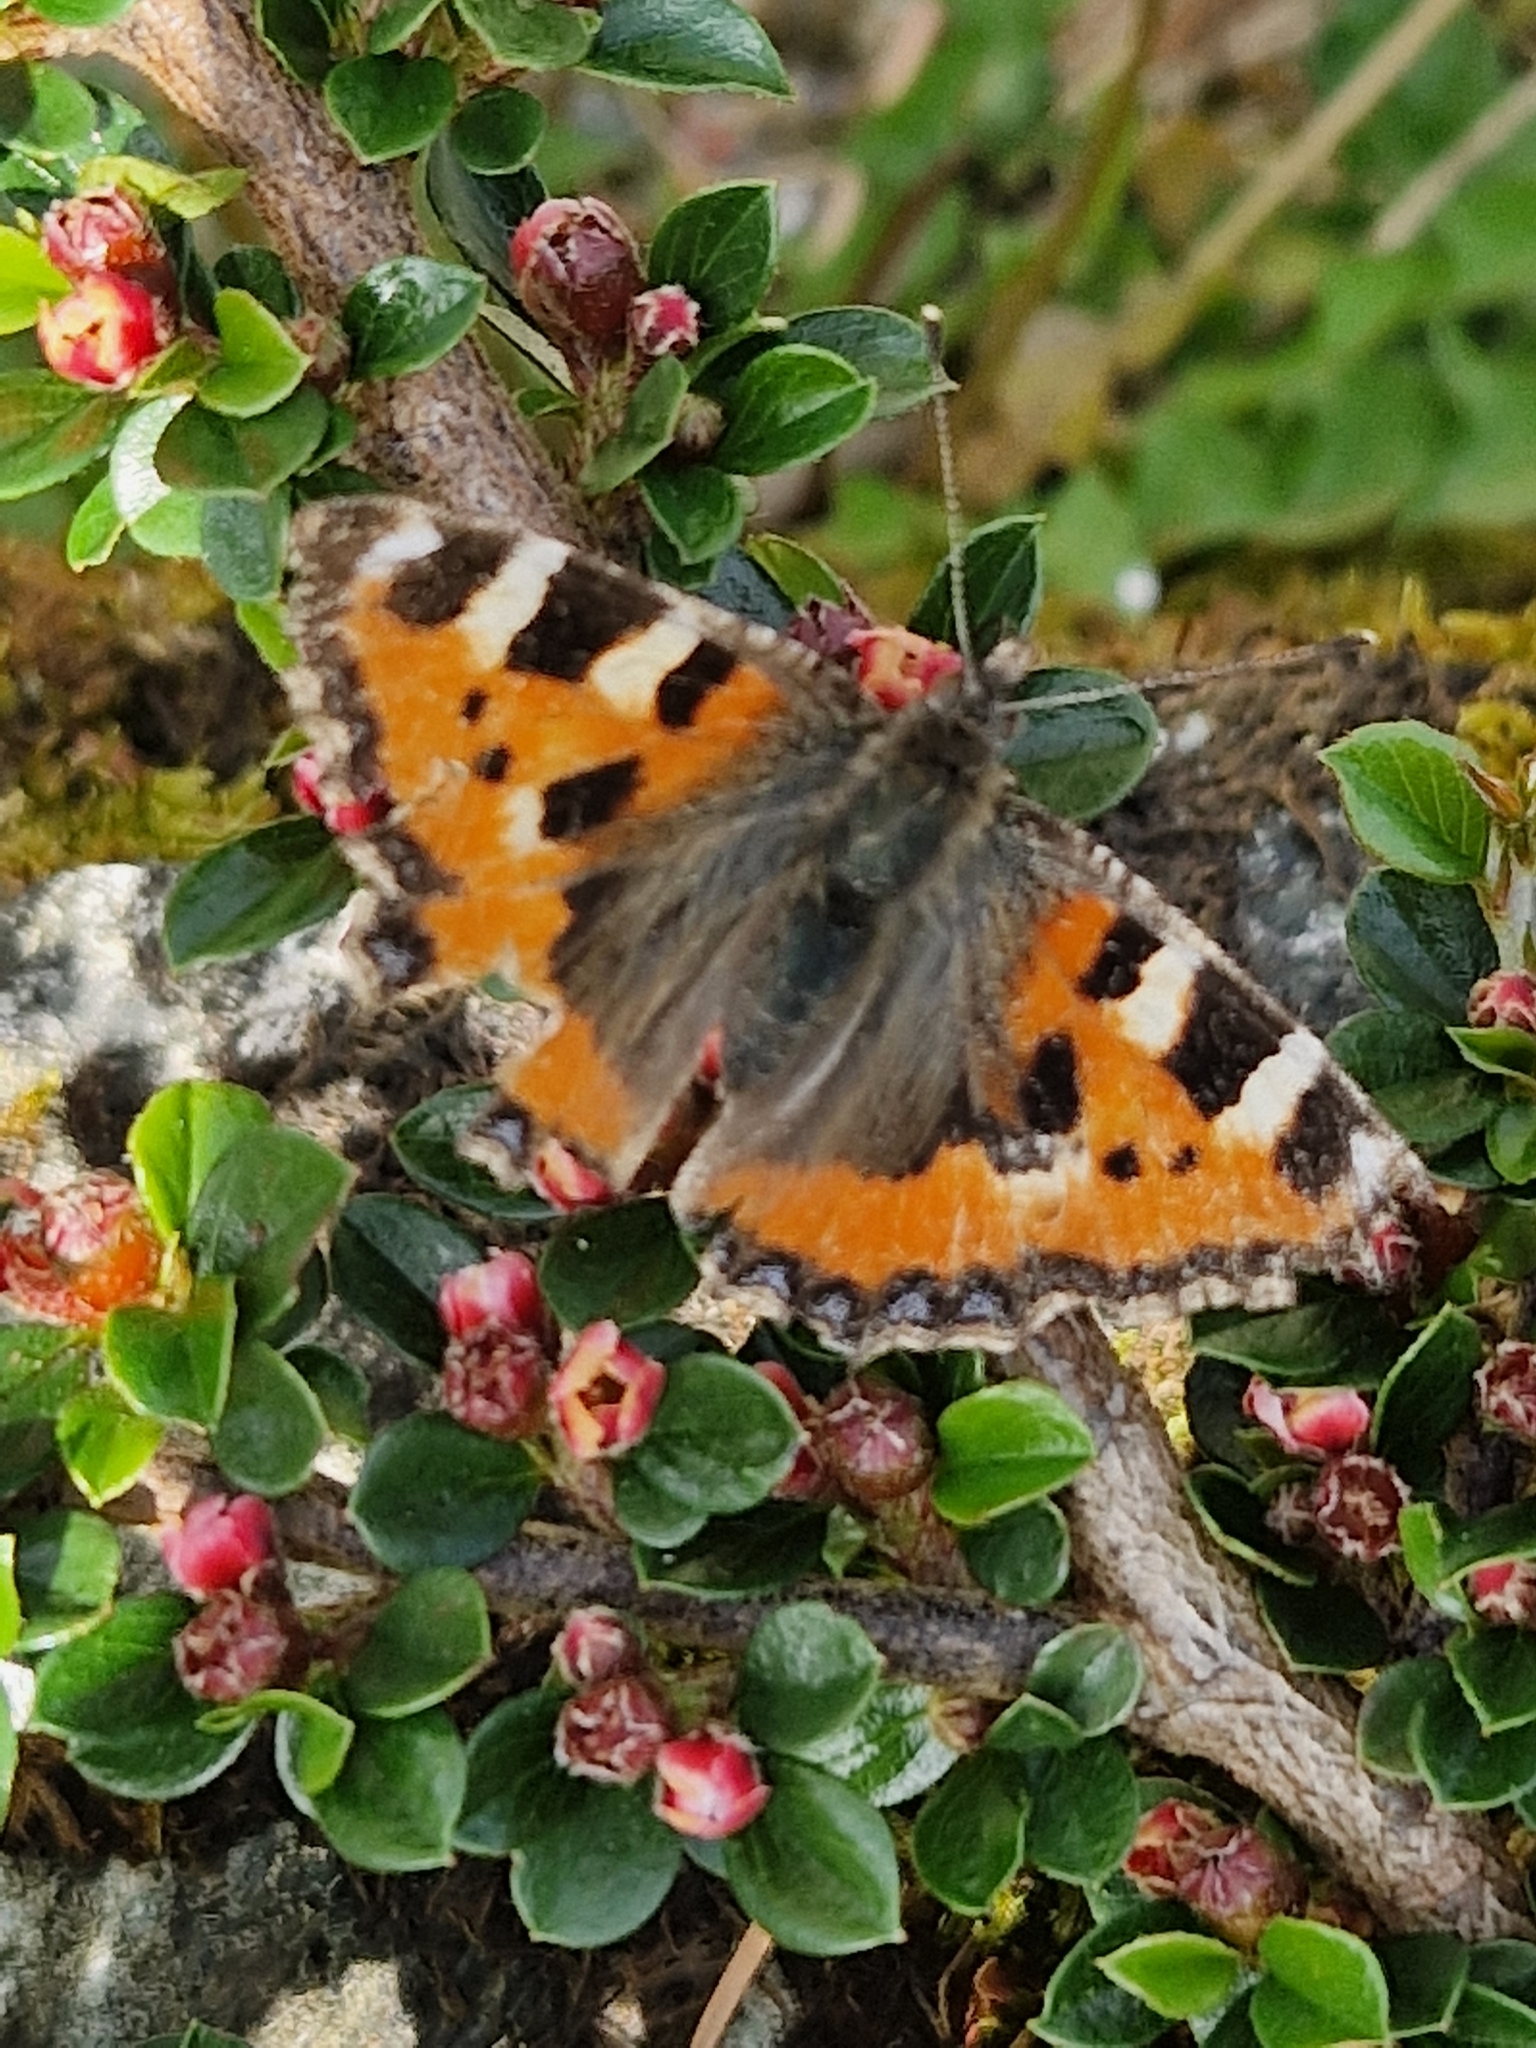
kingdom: Animalia
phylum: Arthropoda
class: Insecta
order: Lepidoptera
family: Nymphalidae
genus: Aglais
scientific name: Aglais urticae
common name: Small tortoiseshell
